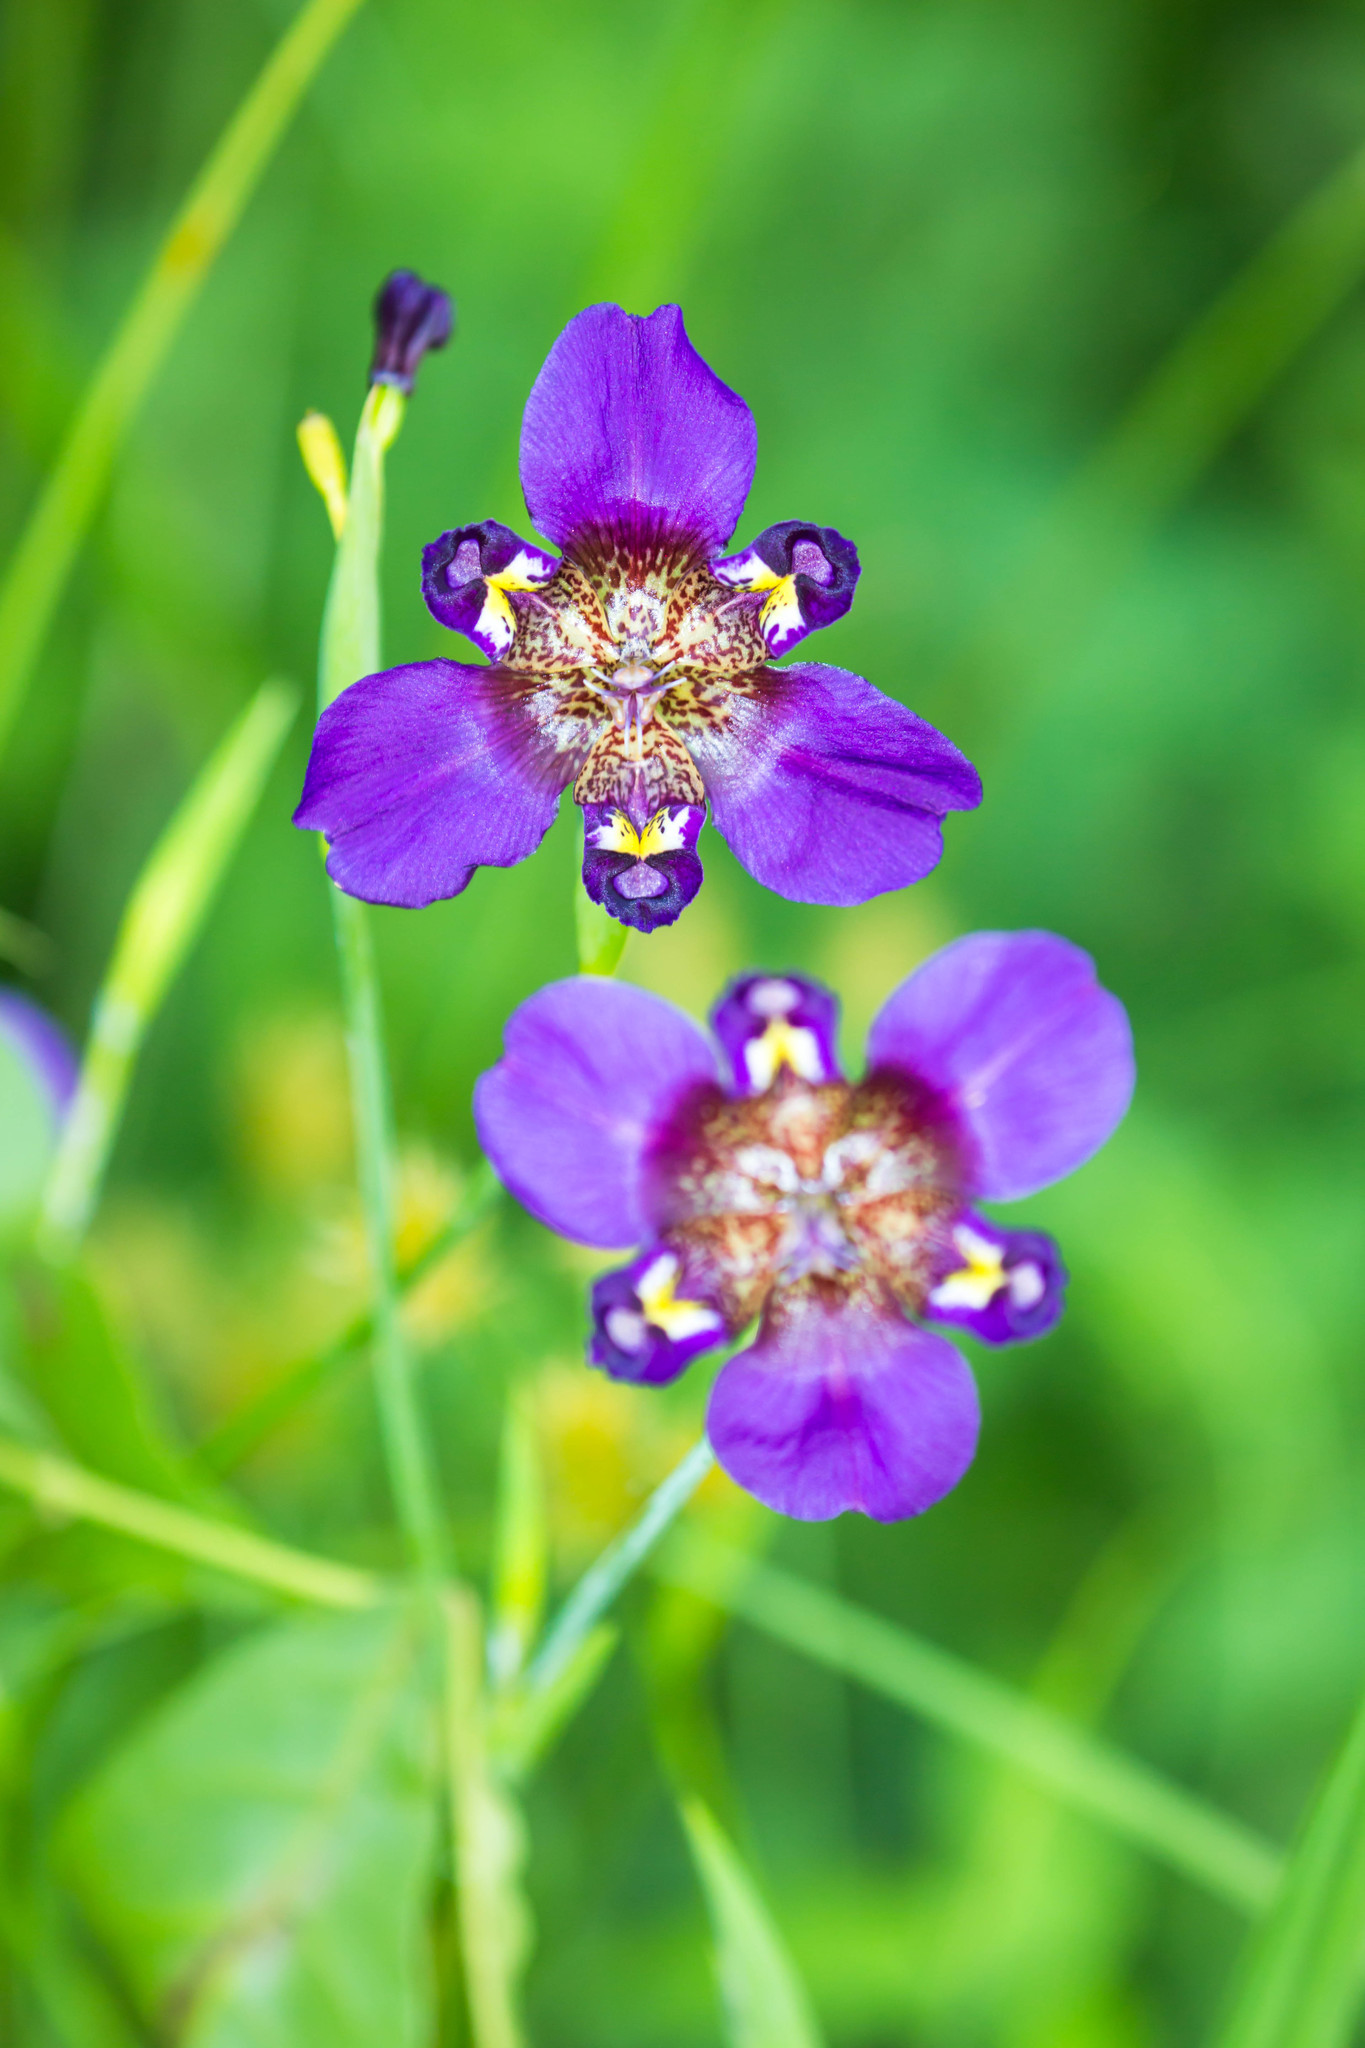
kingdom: Plantae
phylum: Tracheophyta
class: Liliopsida
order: Asparagales
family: Iridaceae
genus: Alophia
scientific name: Alophia drummondii
